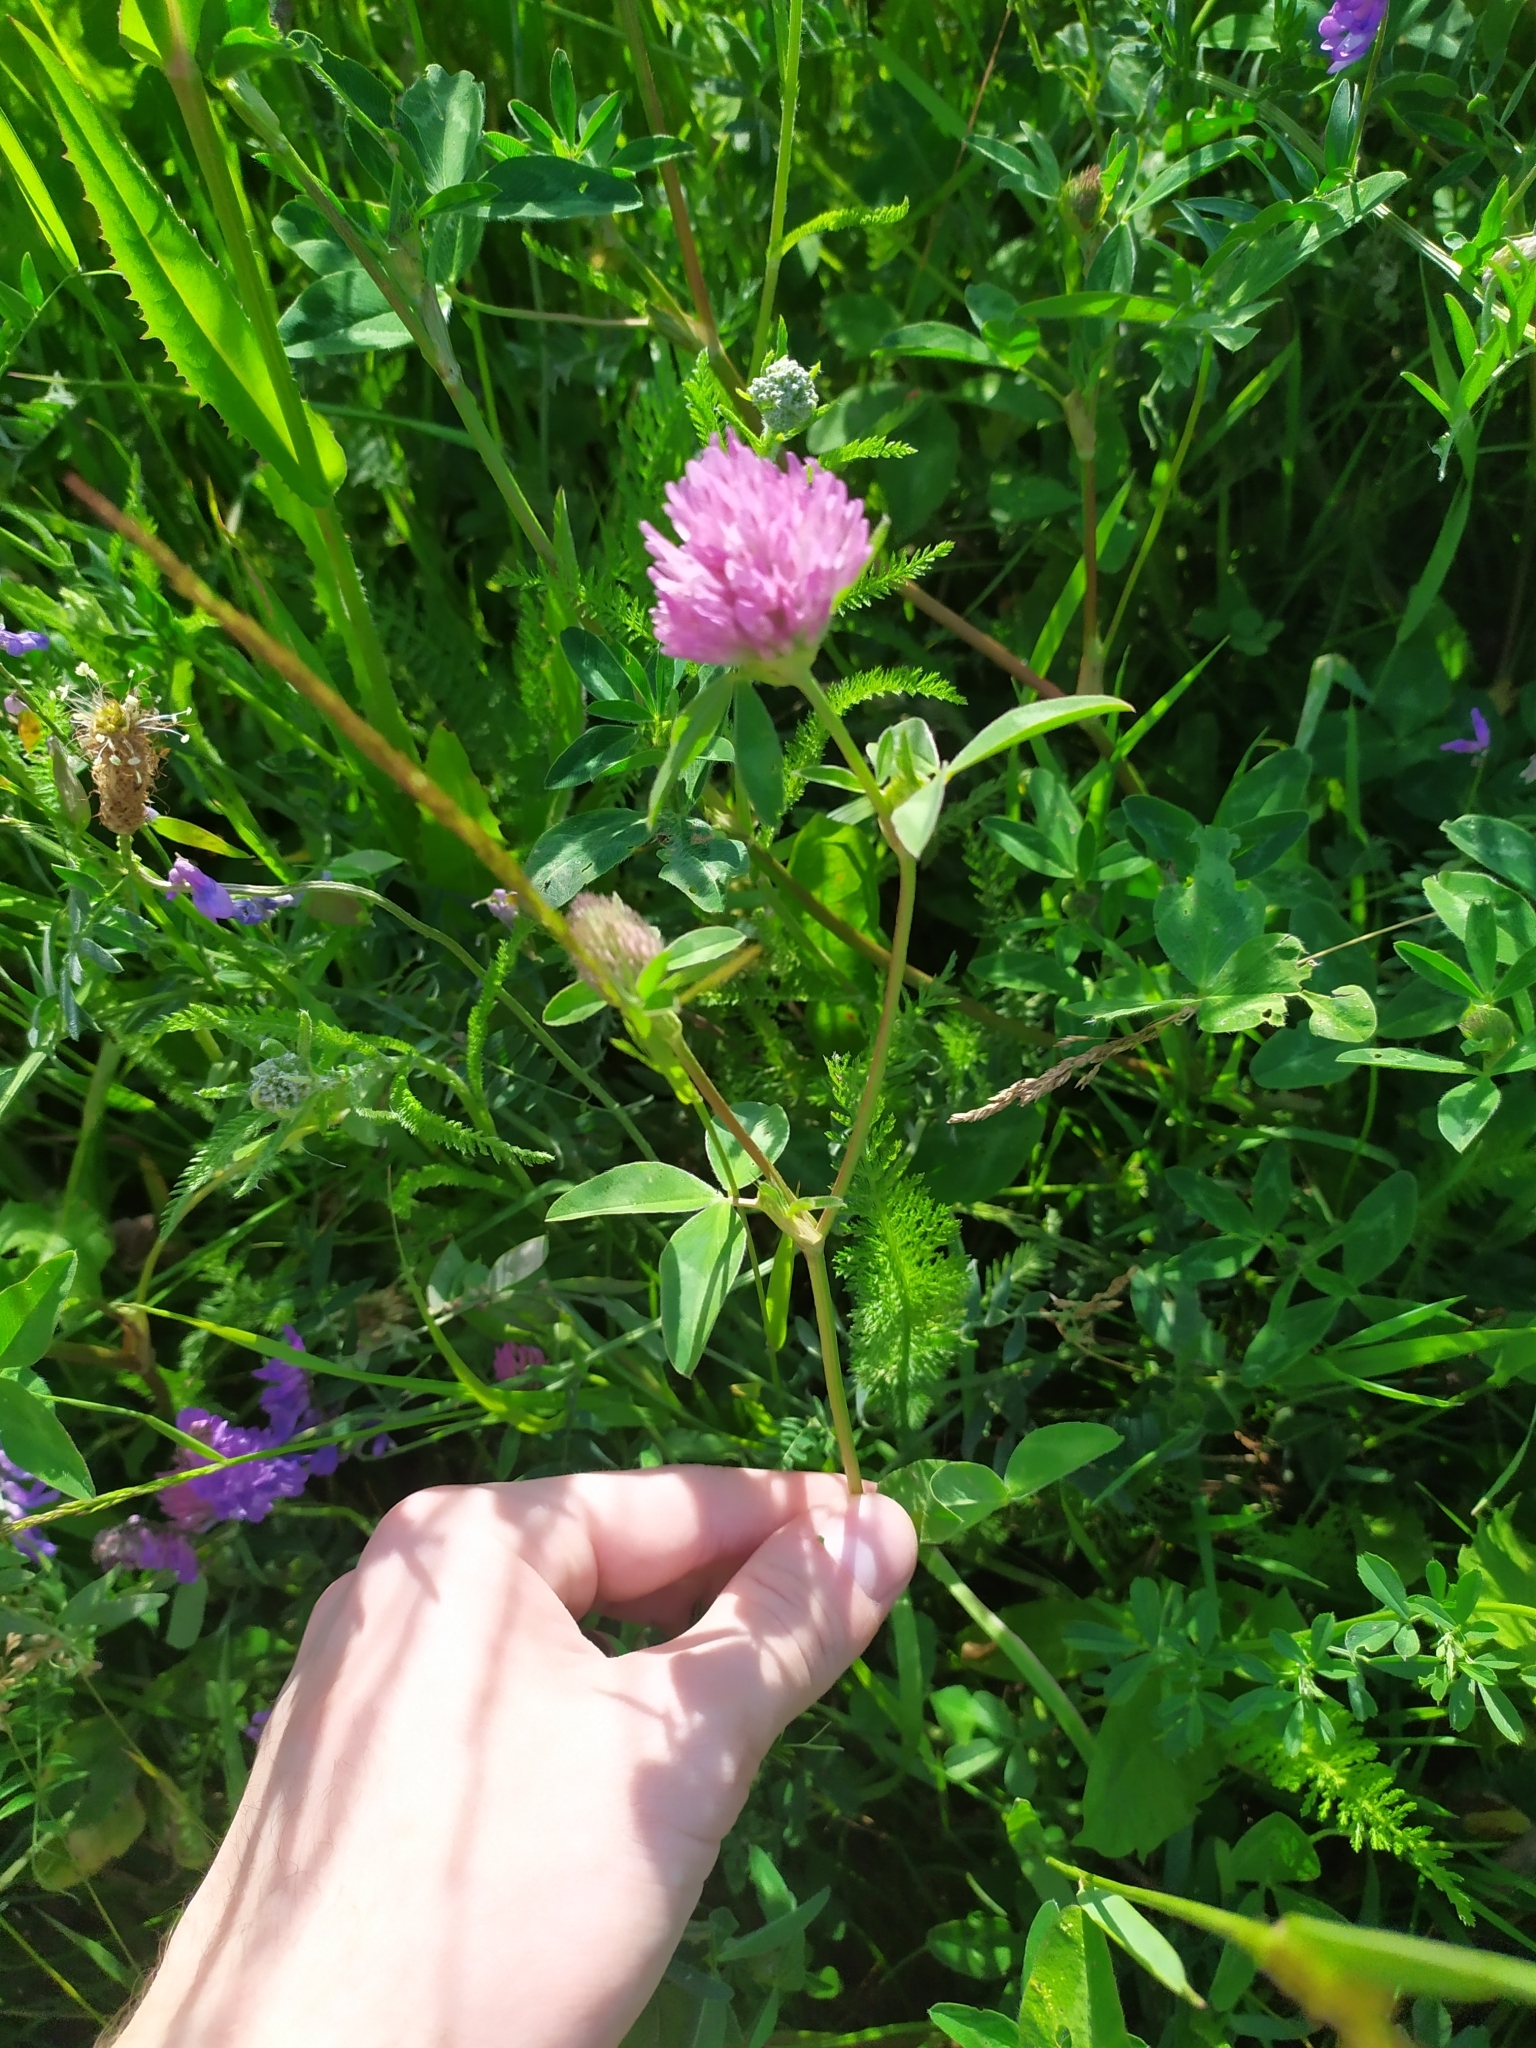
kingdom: Plantae
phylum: Tracheophyta
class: Magnoliopsida
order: Fabales
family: Fabaceae
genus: Trifolium
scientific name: Trifolium pratense
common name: Red clover
